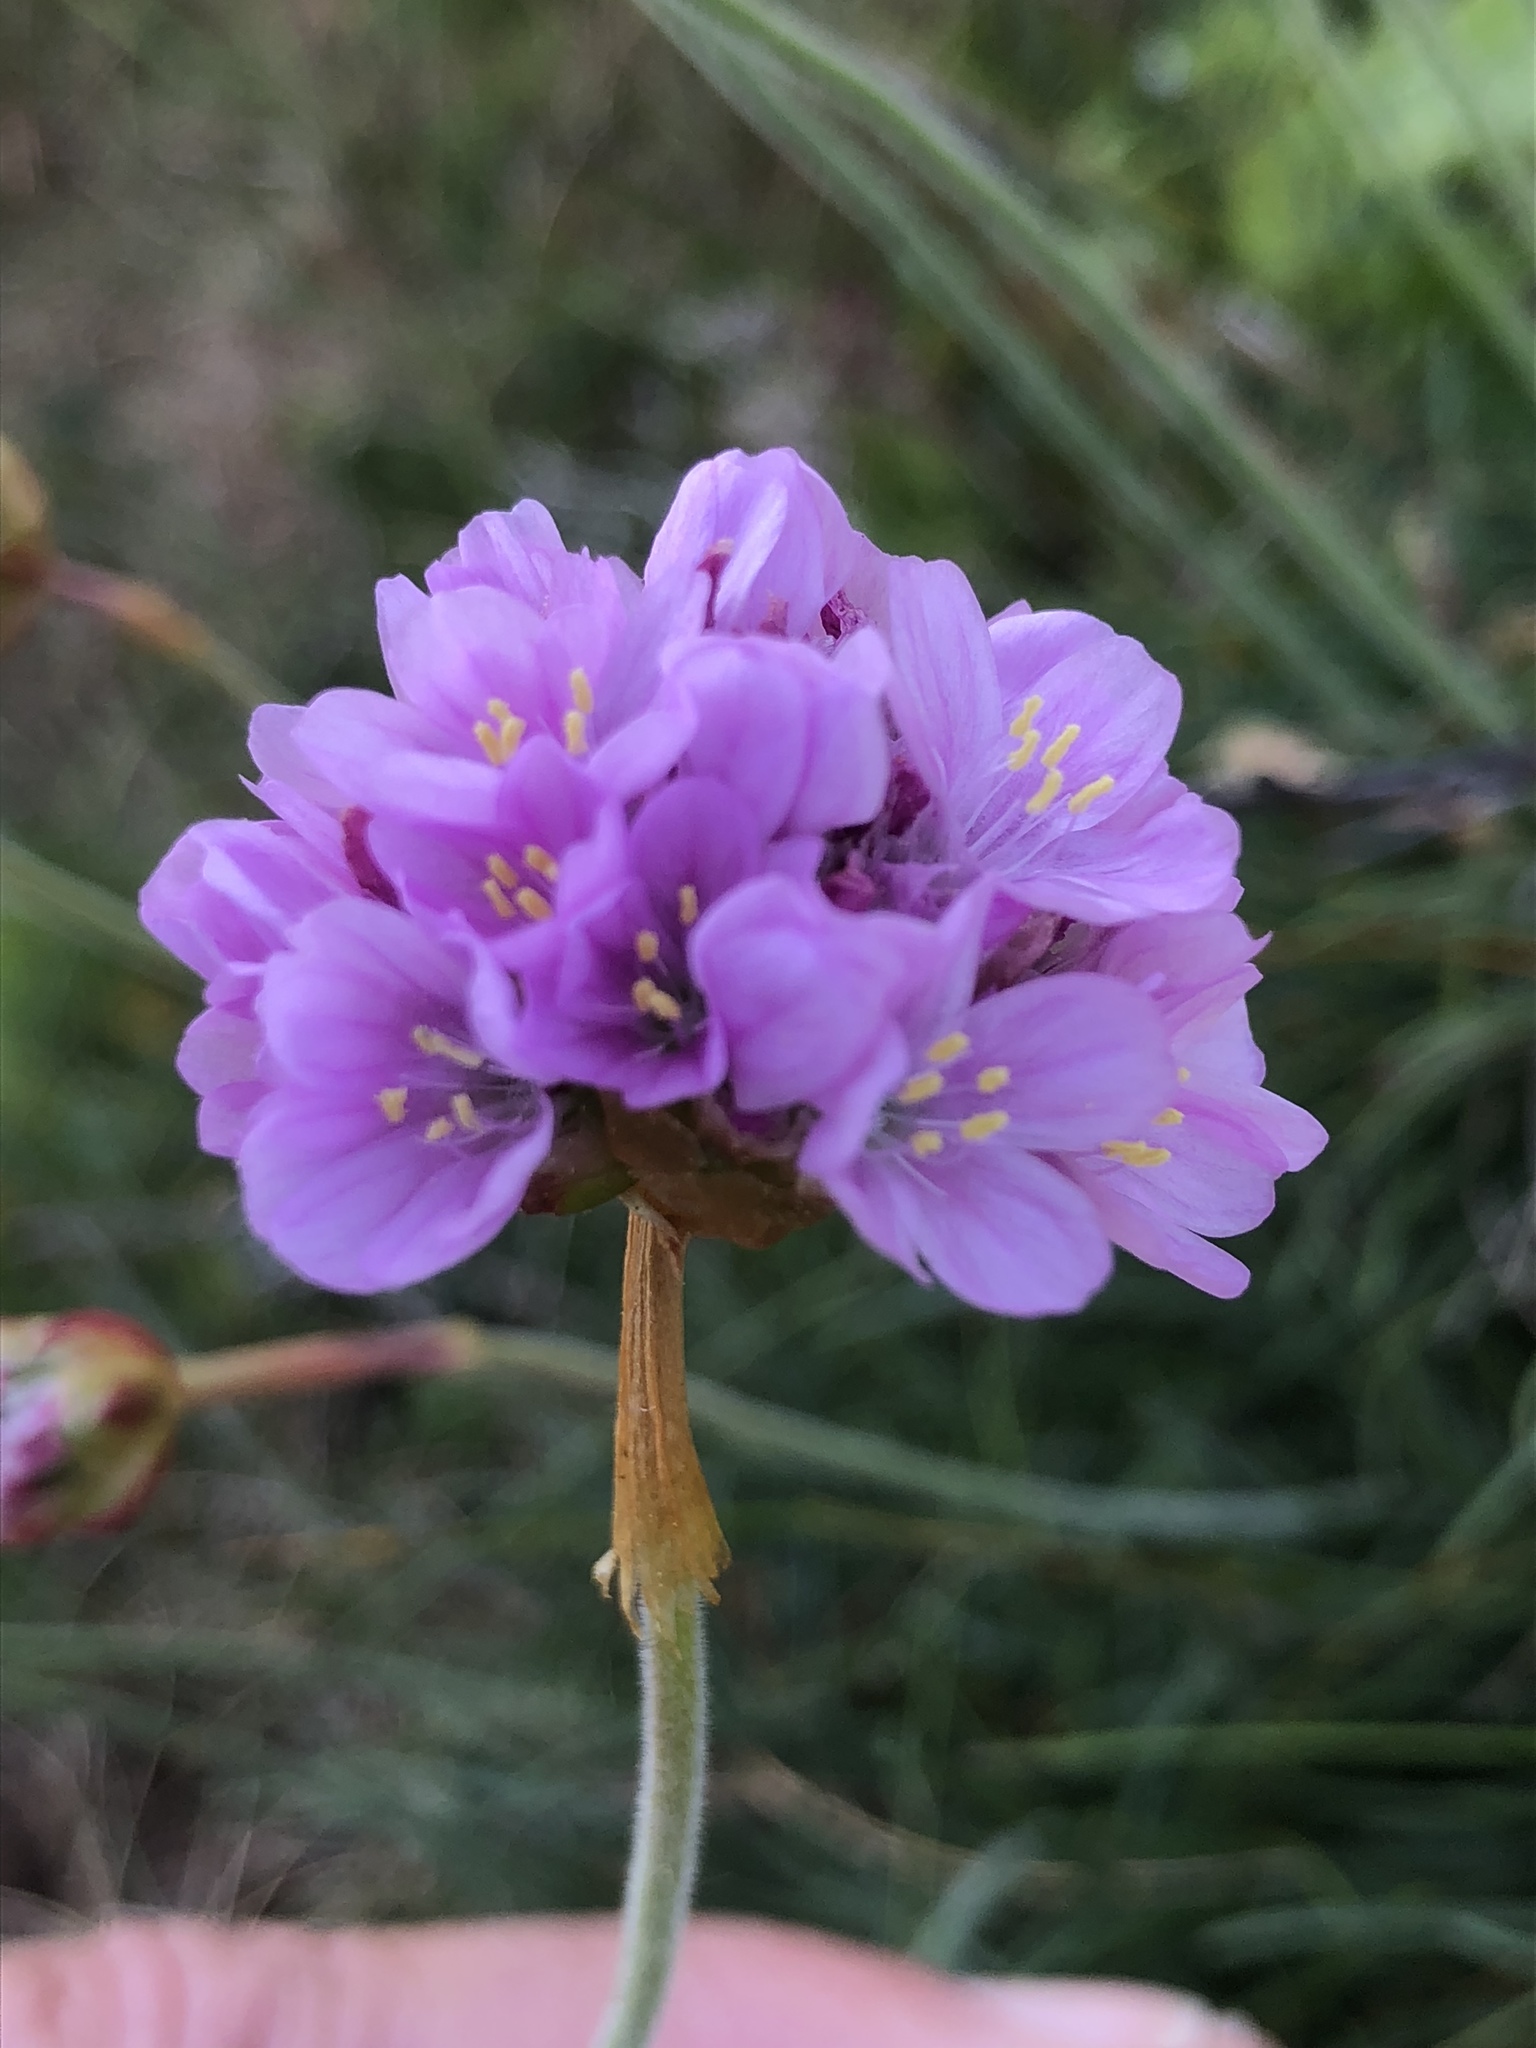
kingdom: Plantae
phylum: Tracheophyta
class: Magnoliopsida
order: Caryophyllales
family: Plumbaginaceae
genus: Armeria
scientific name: Armeria maritima
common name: Thrift
